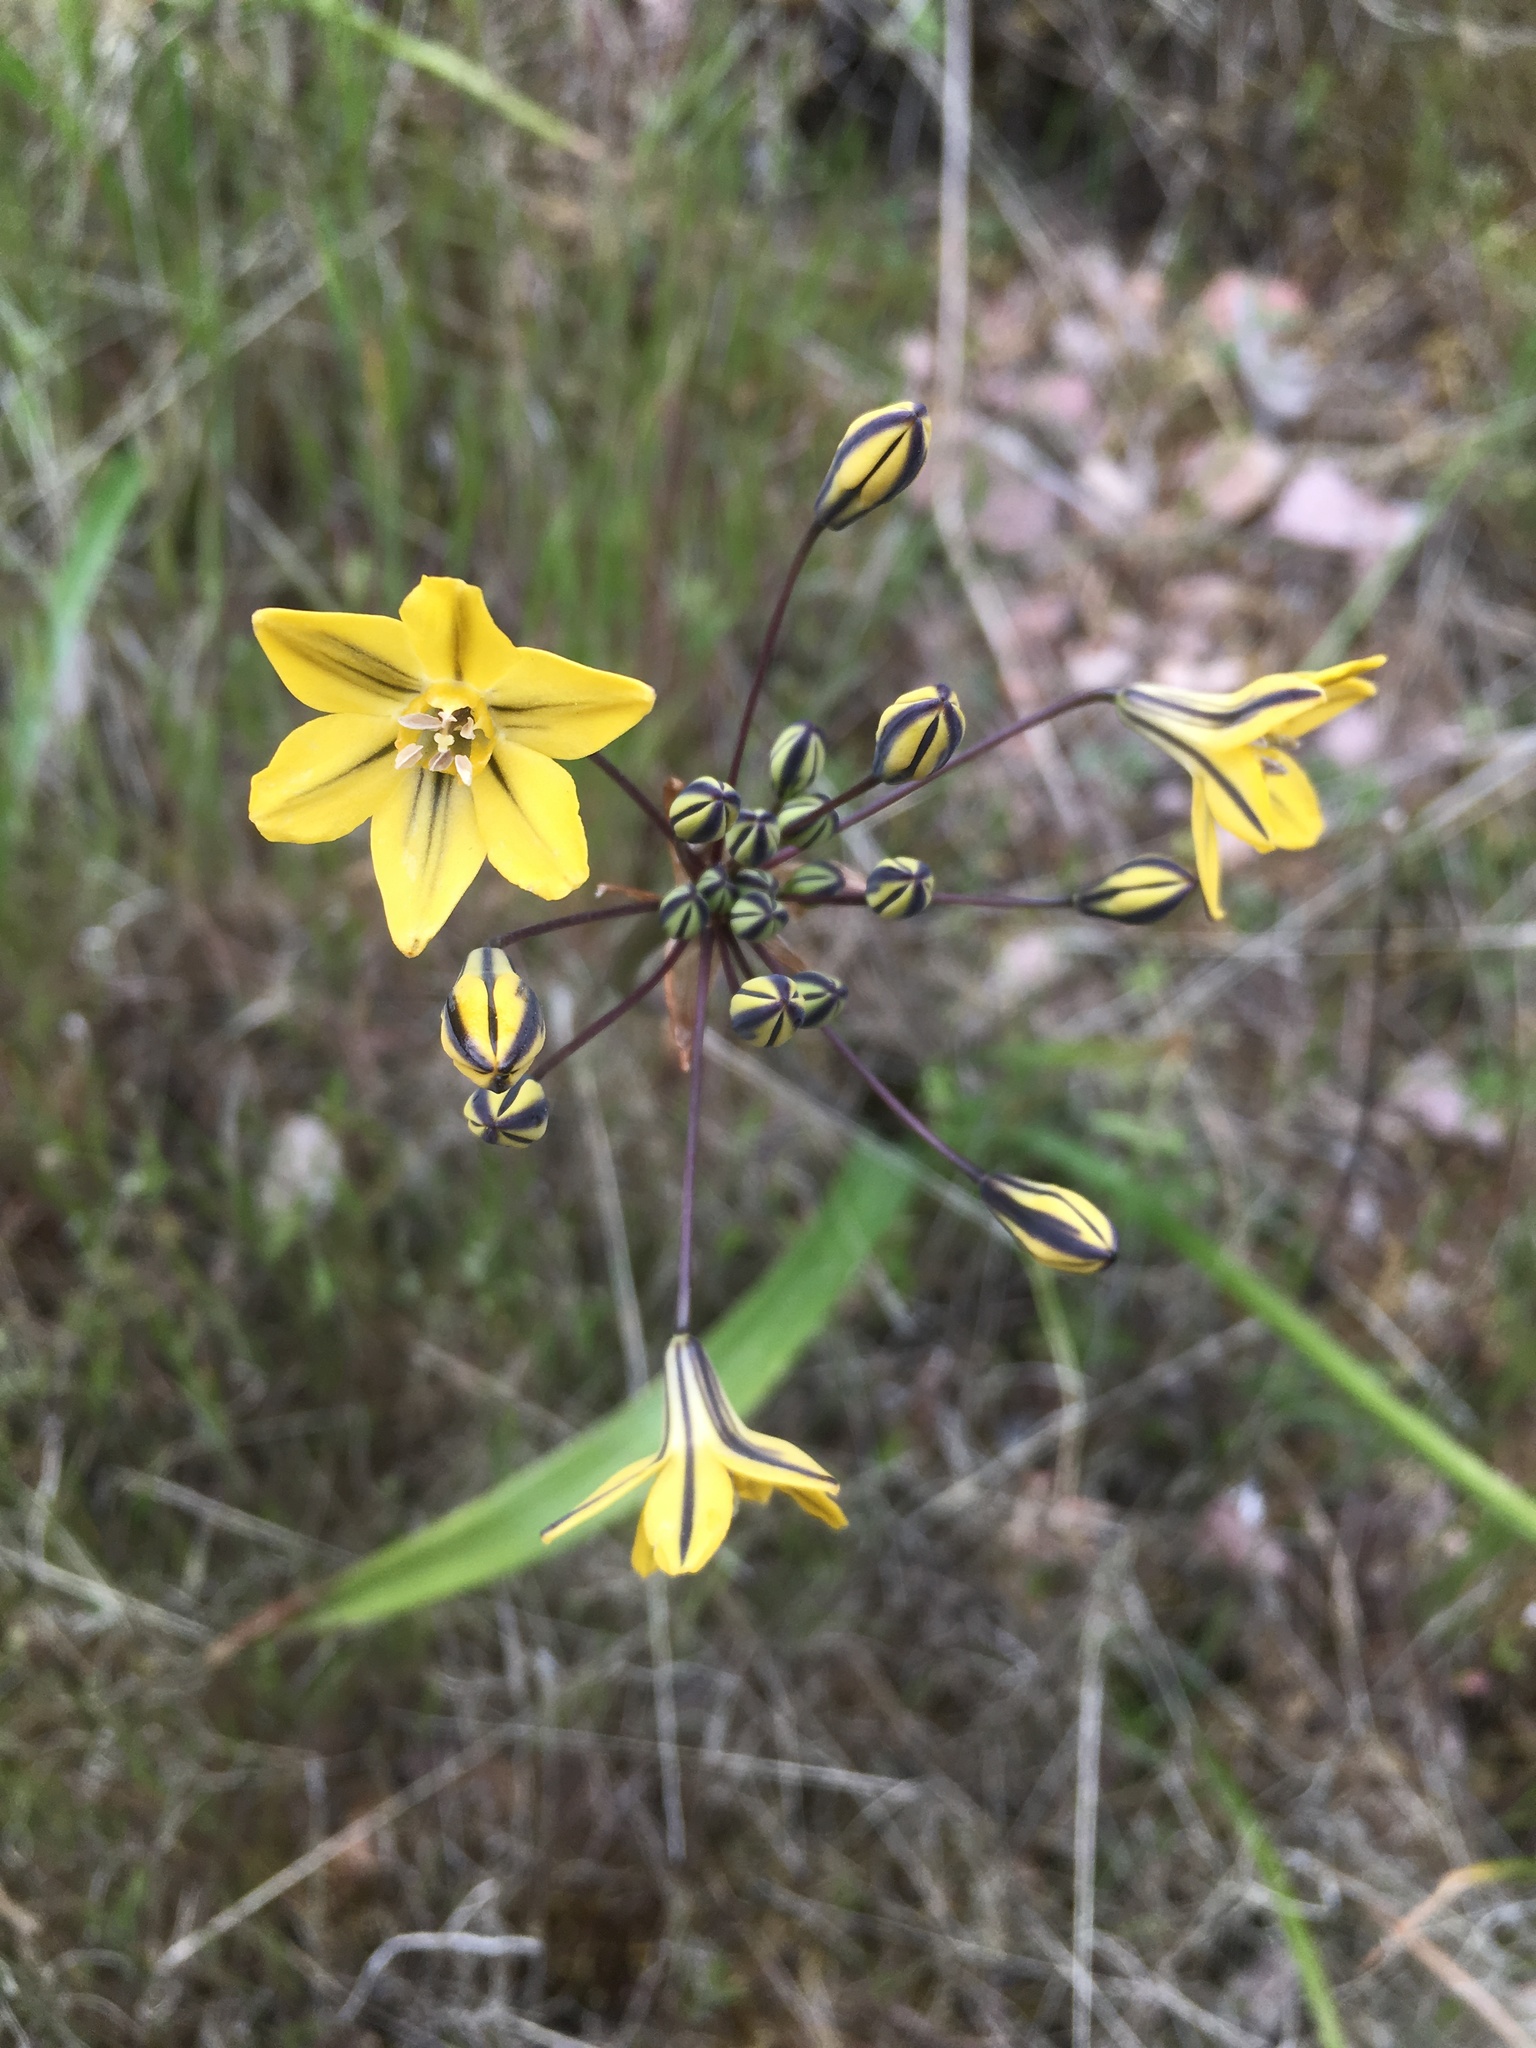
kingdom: Plantae
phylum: Tracheophyta
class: Liliopsida
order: Asparagales
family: Asparagaceae
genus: Triteleia
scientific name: Triteleia lugens
